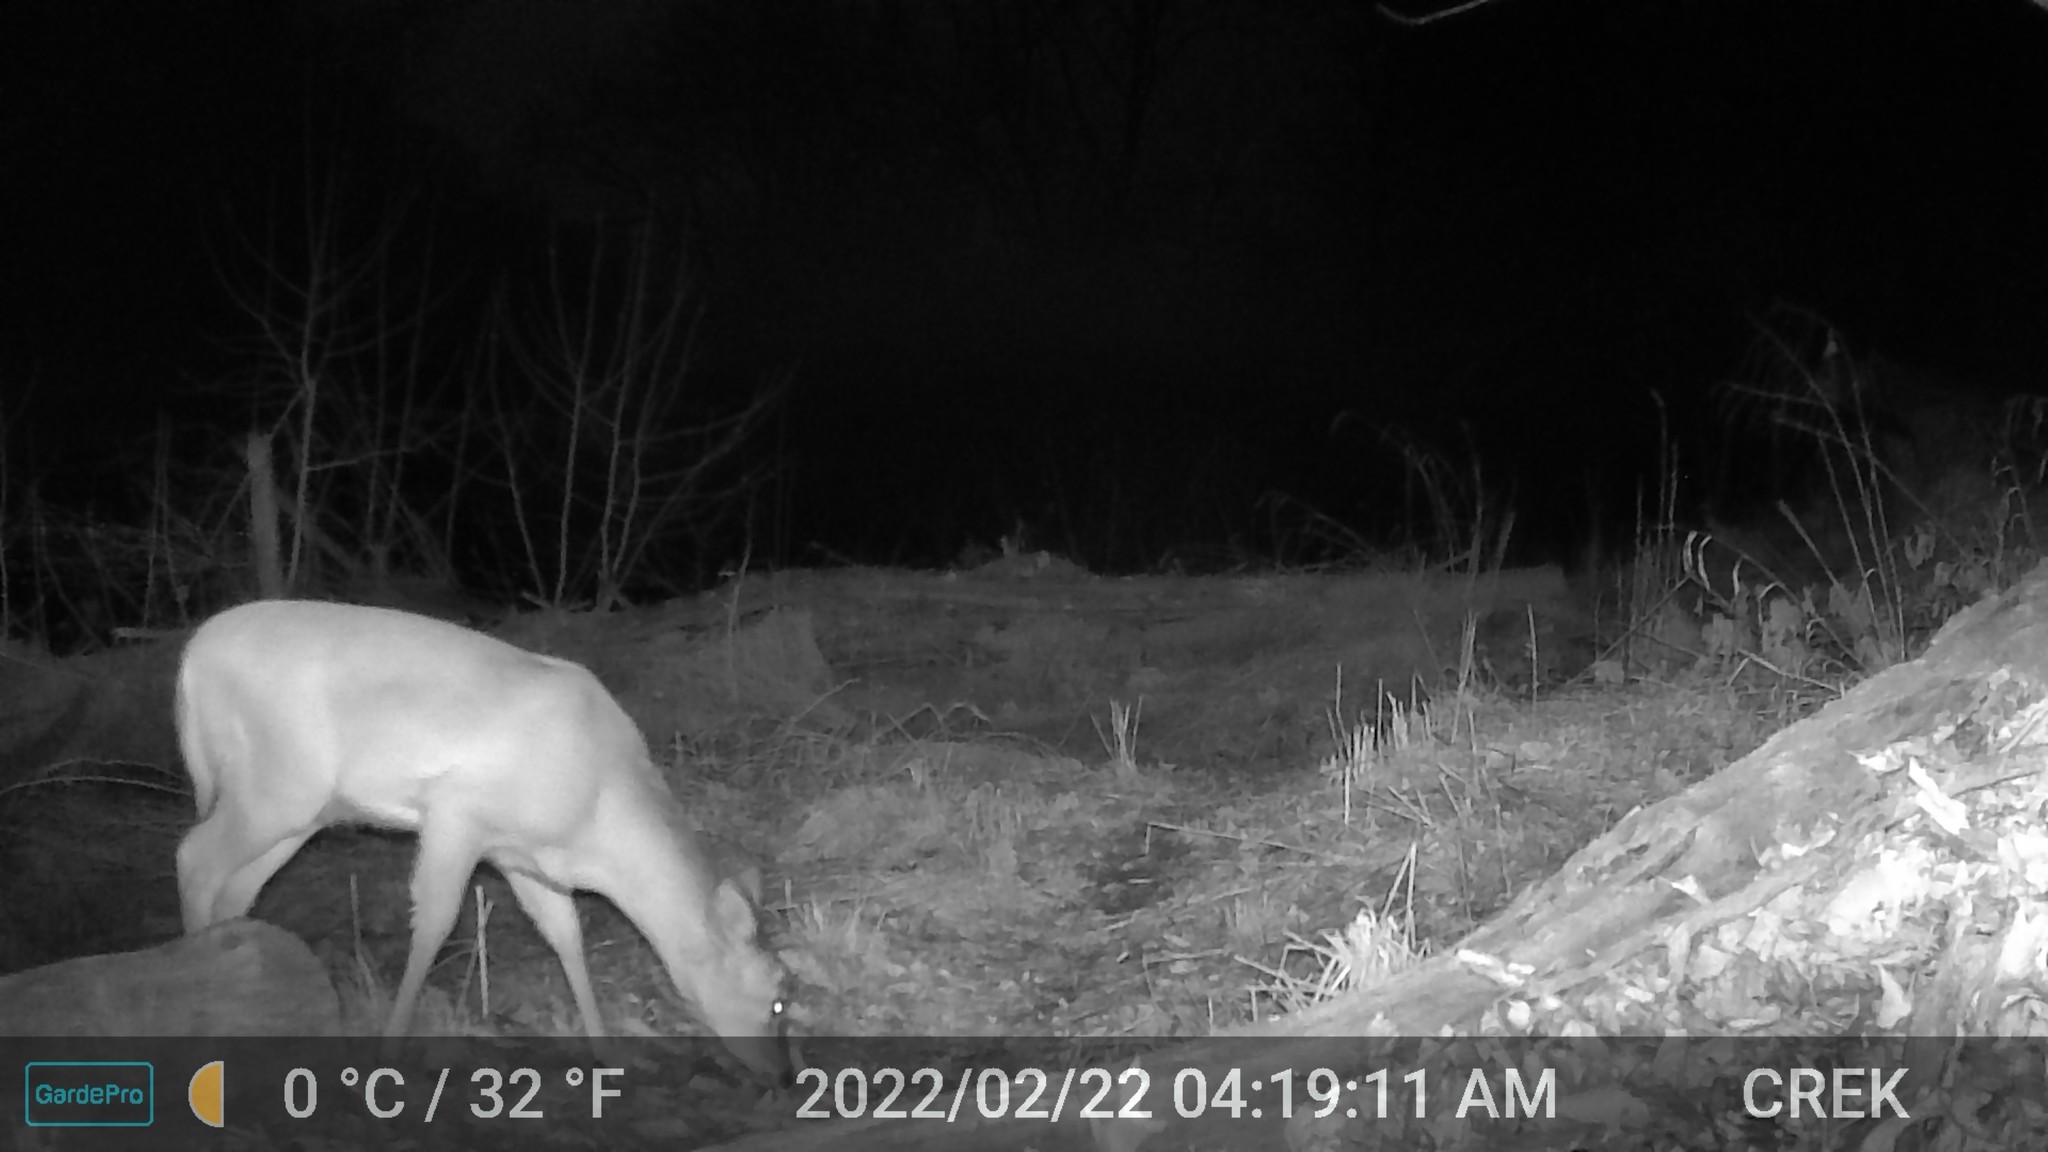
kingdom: Animalia
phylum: Chordata
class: Mammalia
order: Artiodactyla
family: Cervidae
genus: Odocoileus
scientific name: Odocoileus virginianus
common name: White-tailed deer
